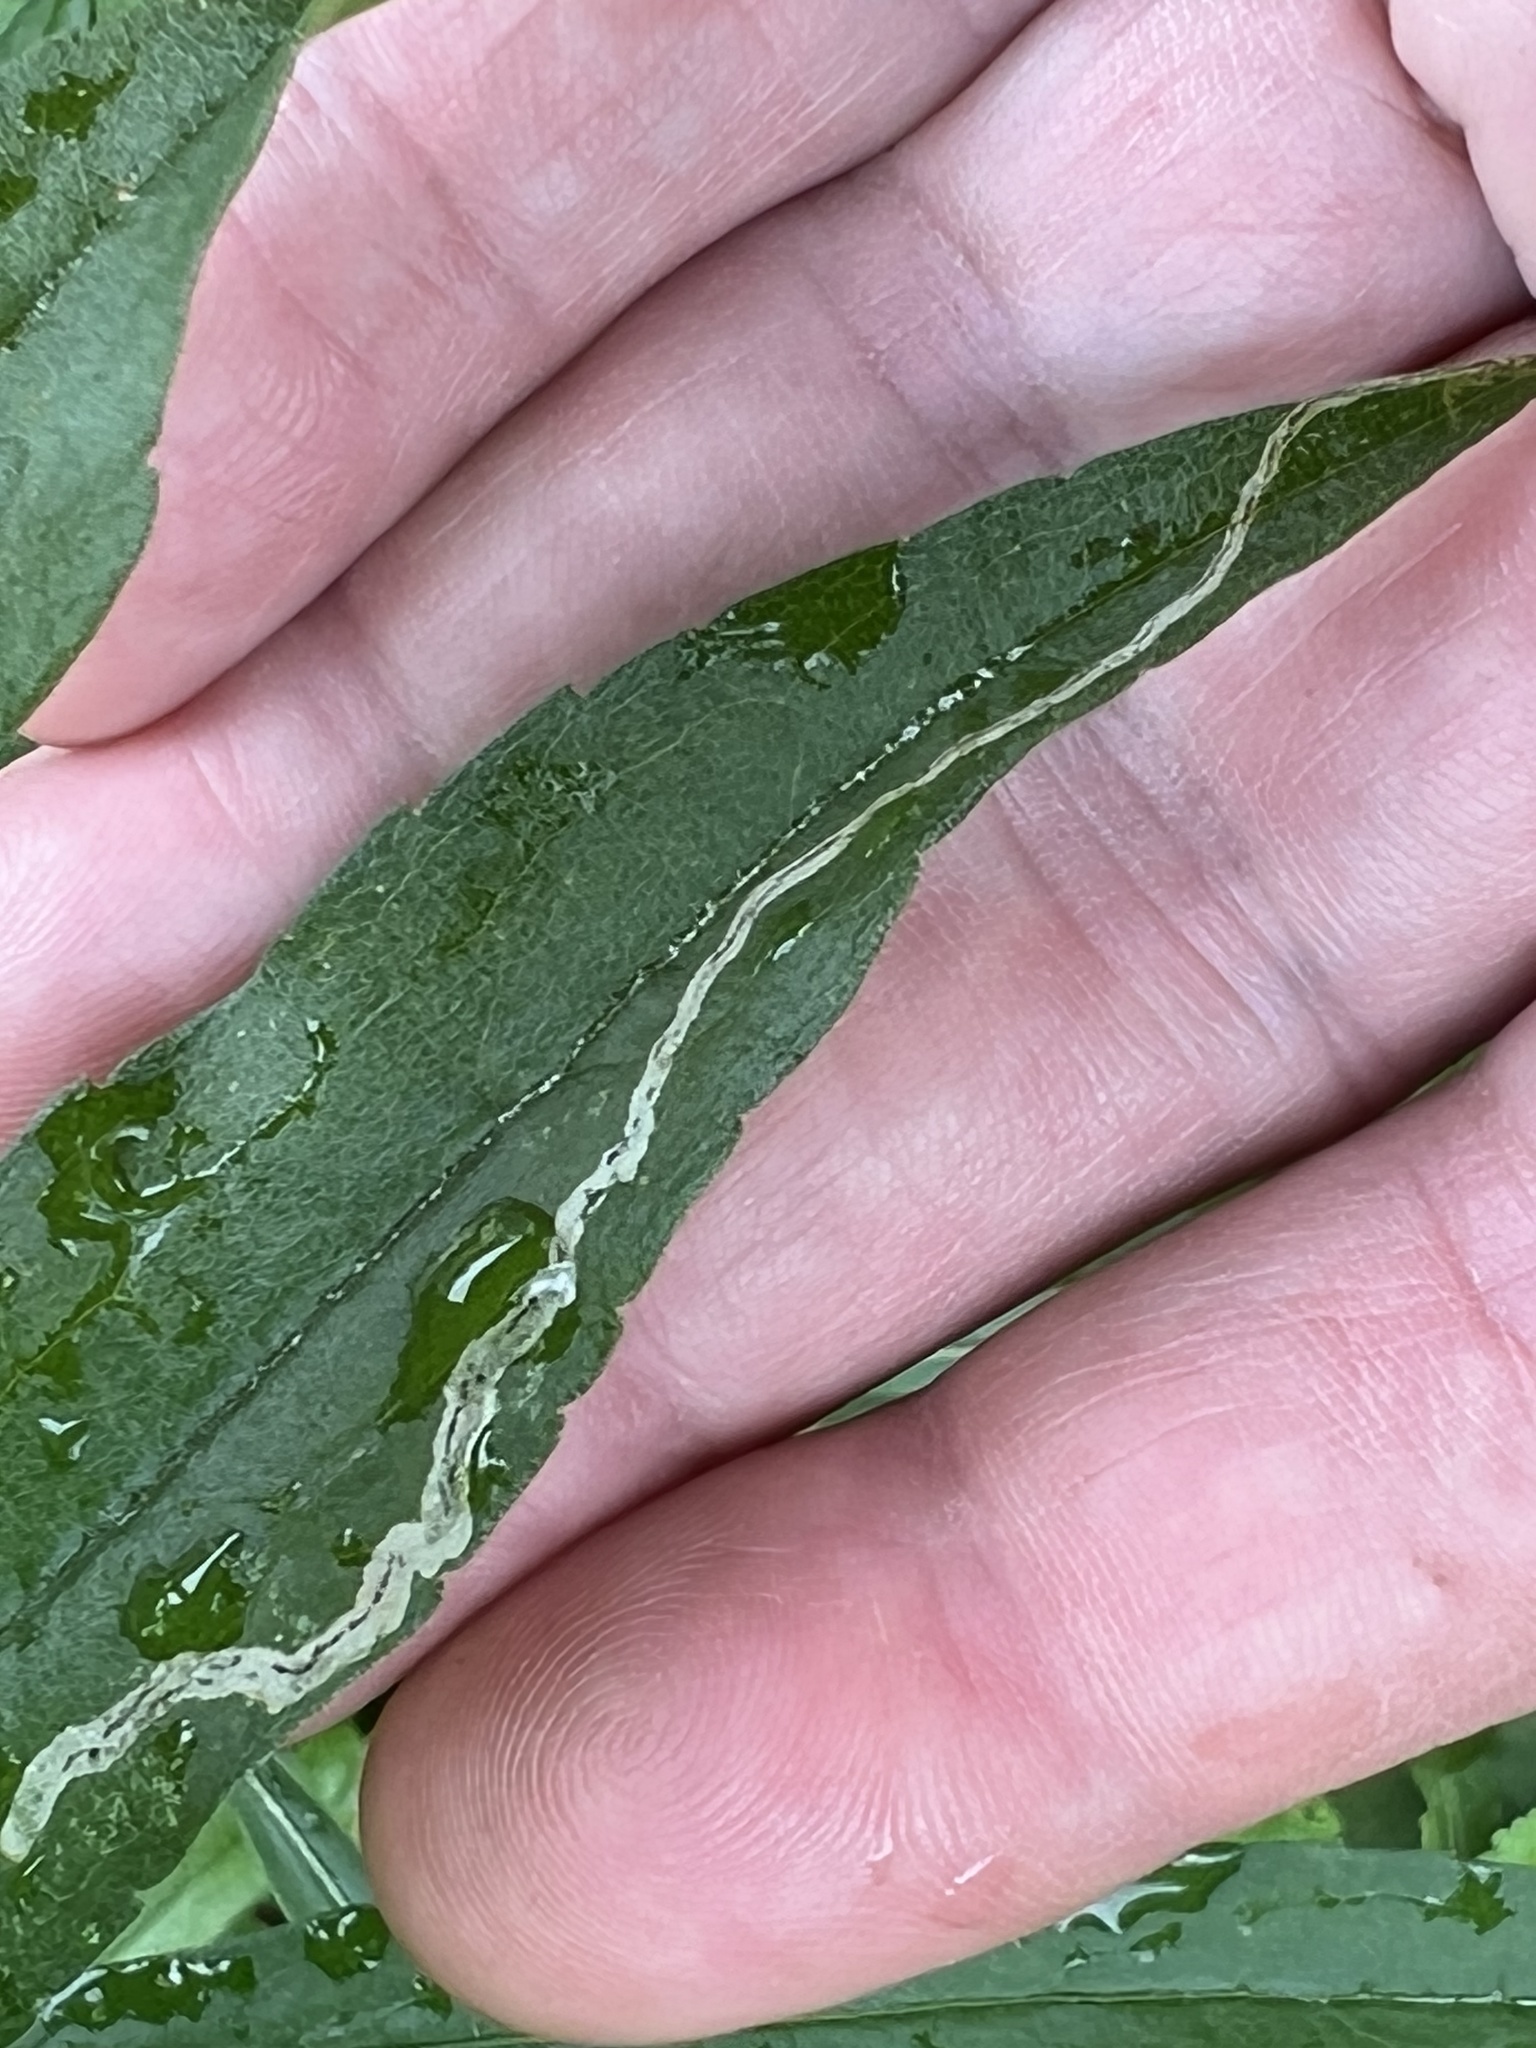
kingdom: Animalia
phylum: Arthropoda
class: Insecta
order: Diptera
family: Agromyzidae
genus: Liriomyza
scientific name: Liriomyza eupatorii
